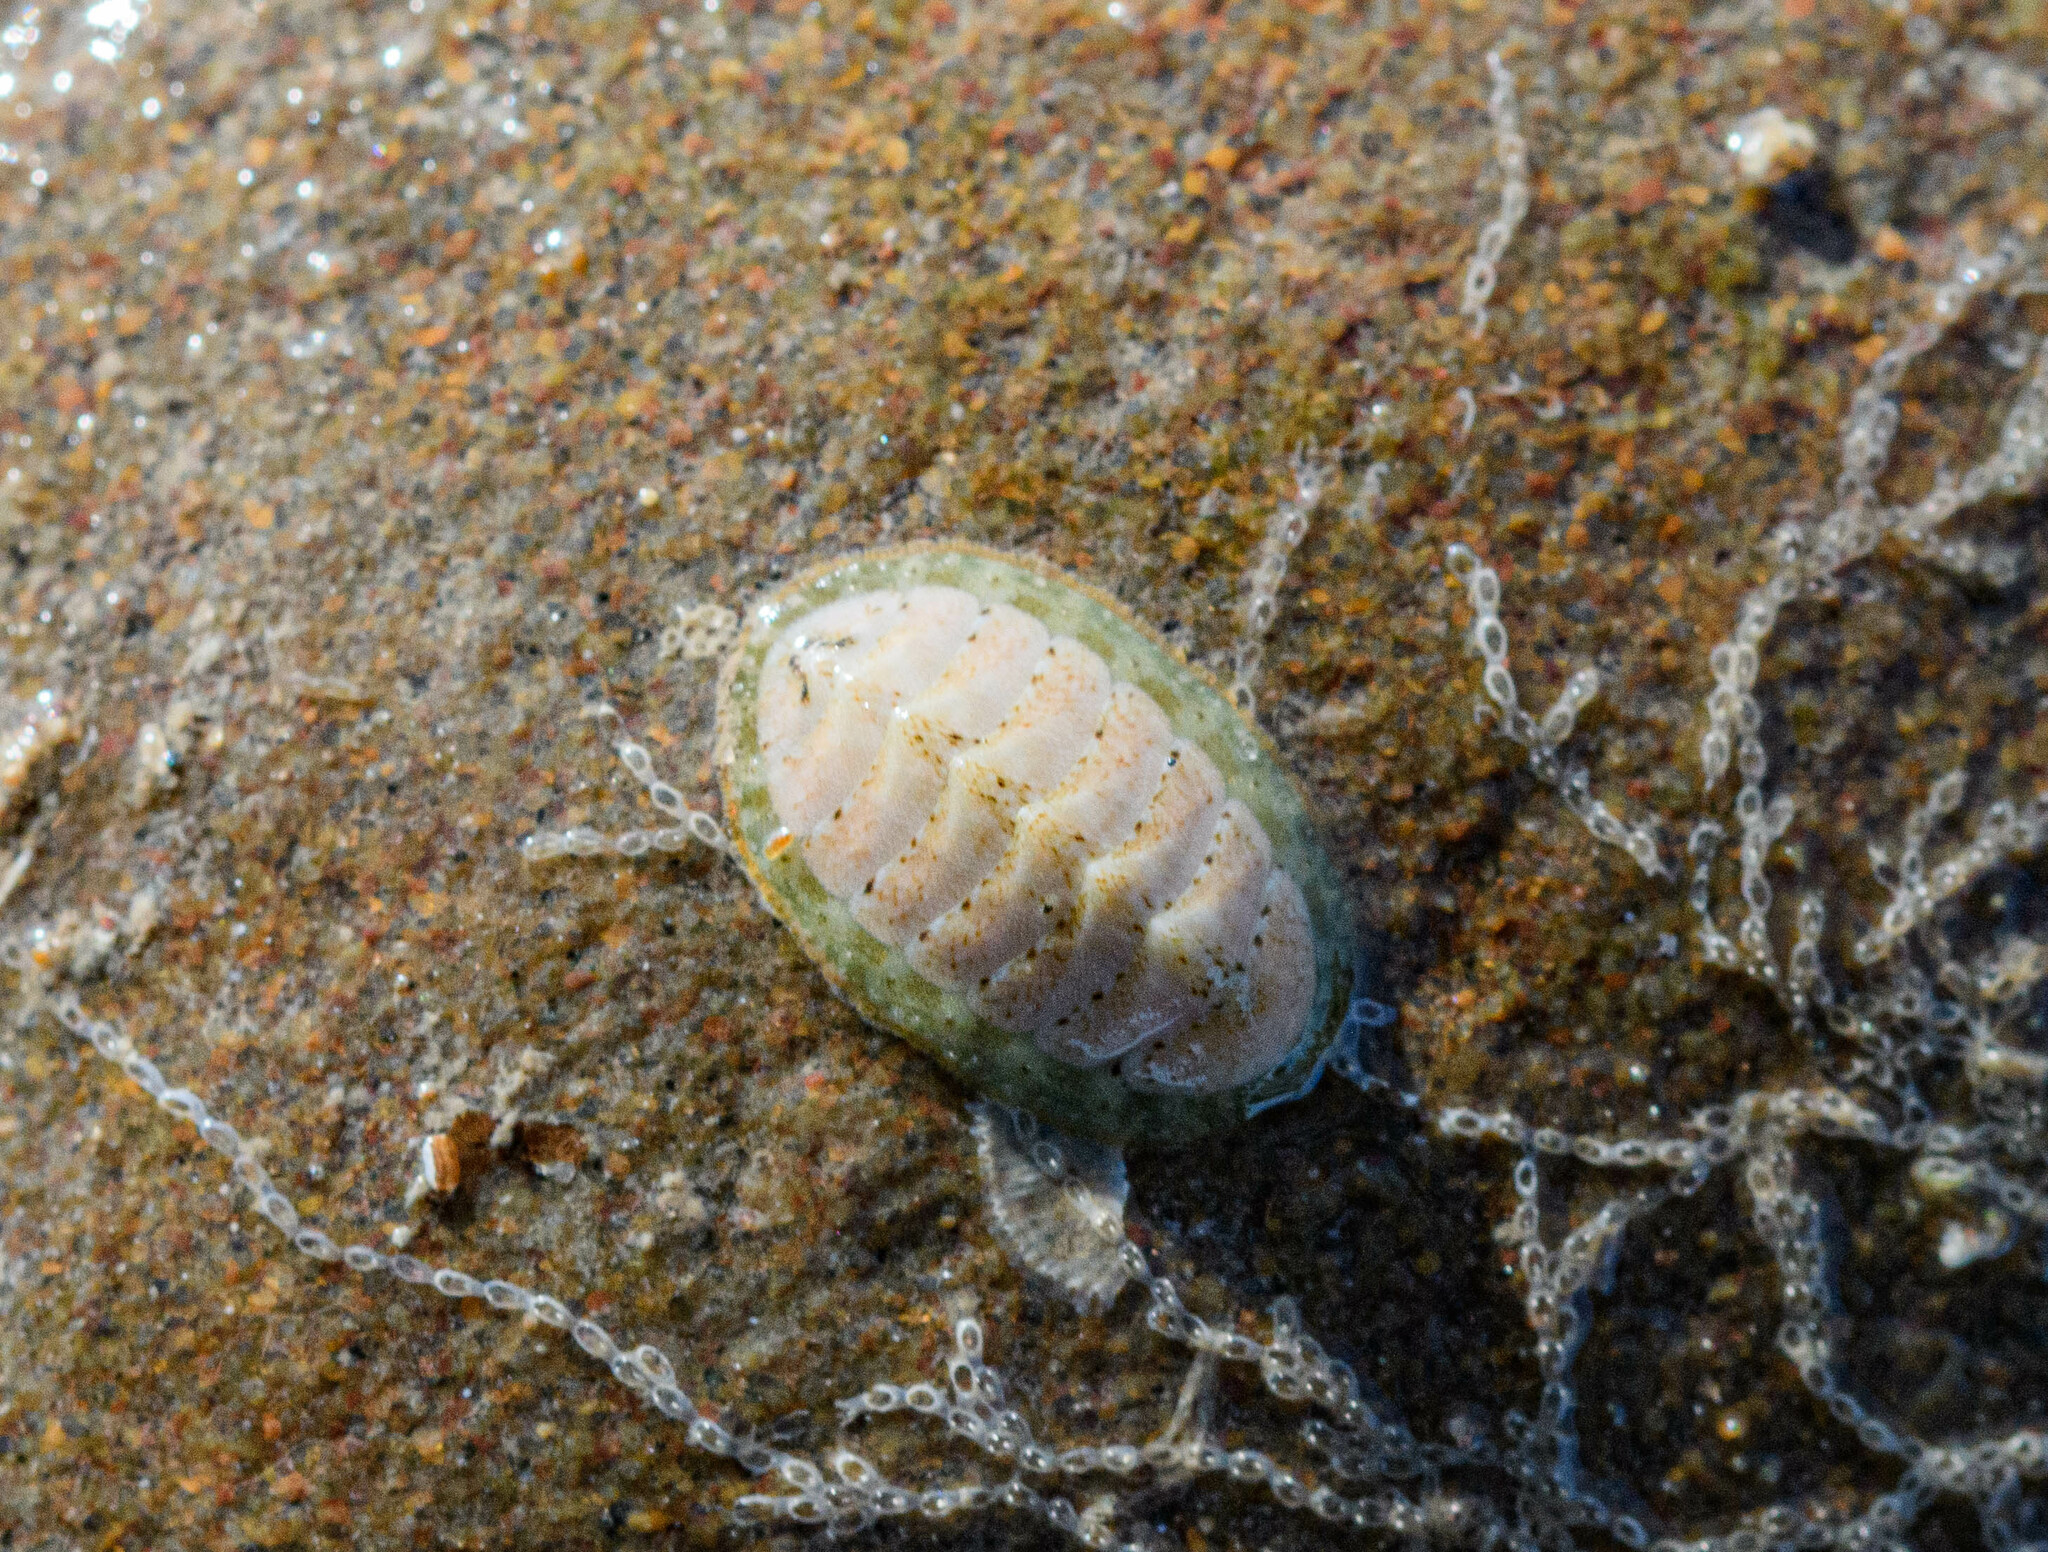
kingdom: Animalia
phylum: Mollusca
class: Polyplacophora
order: Chitonida
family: Tonicellidae
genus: Lepidochitona
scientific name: Lepidochitona cinerea
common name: Cinereous chiton
